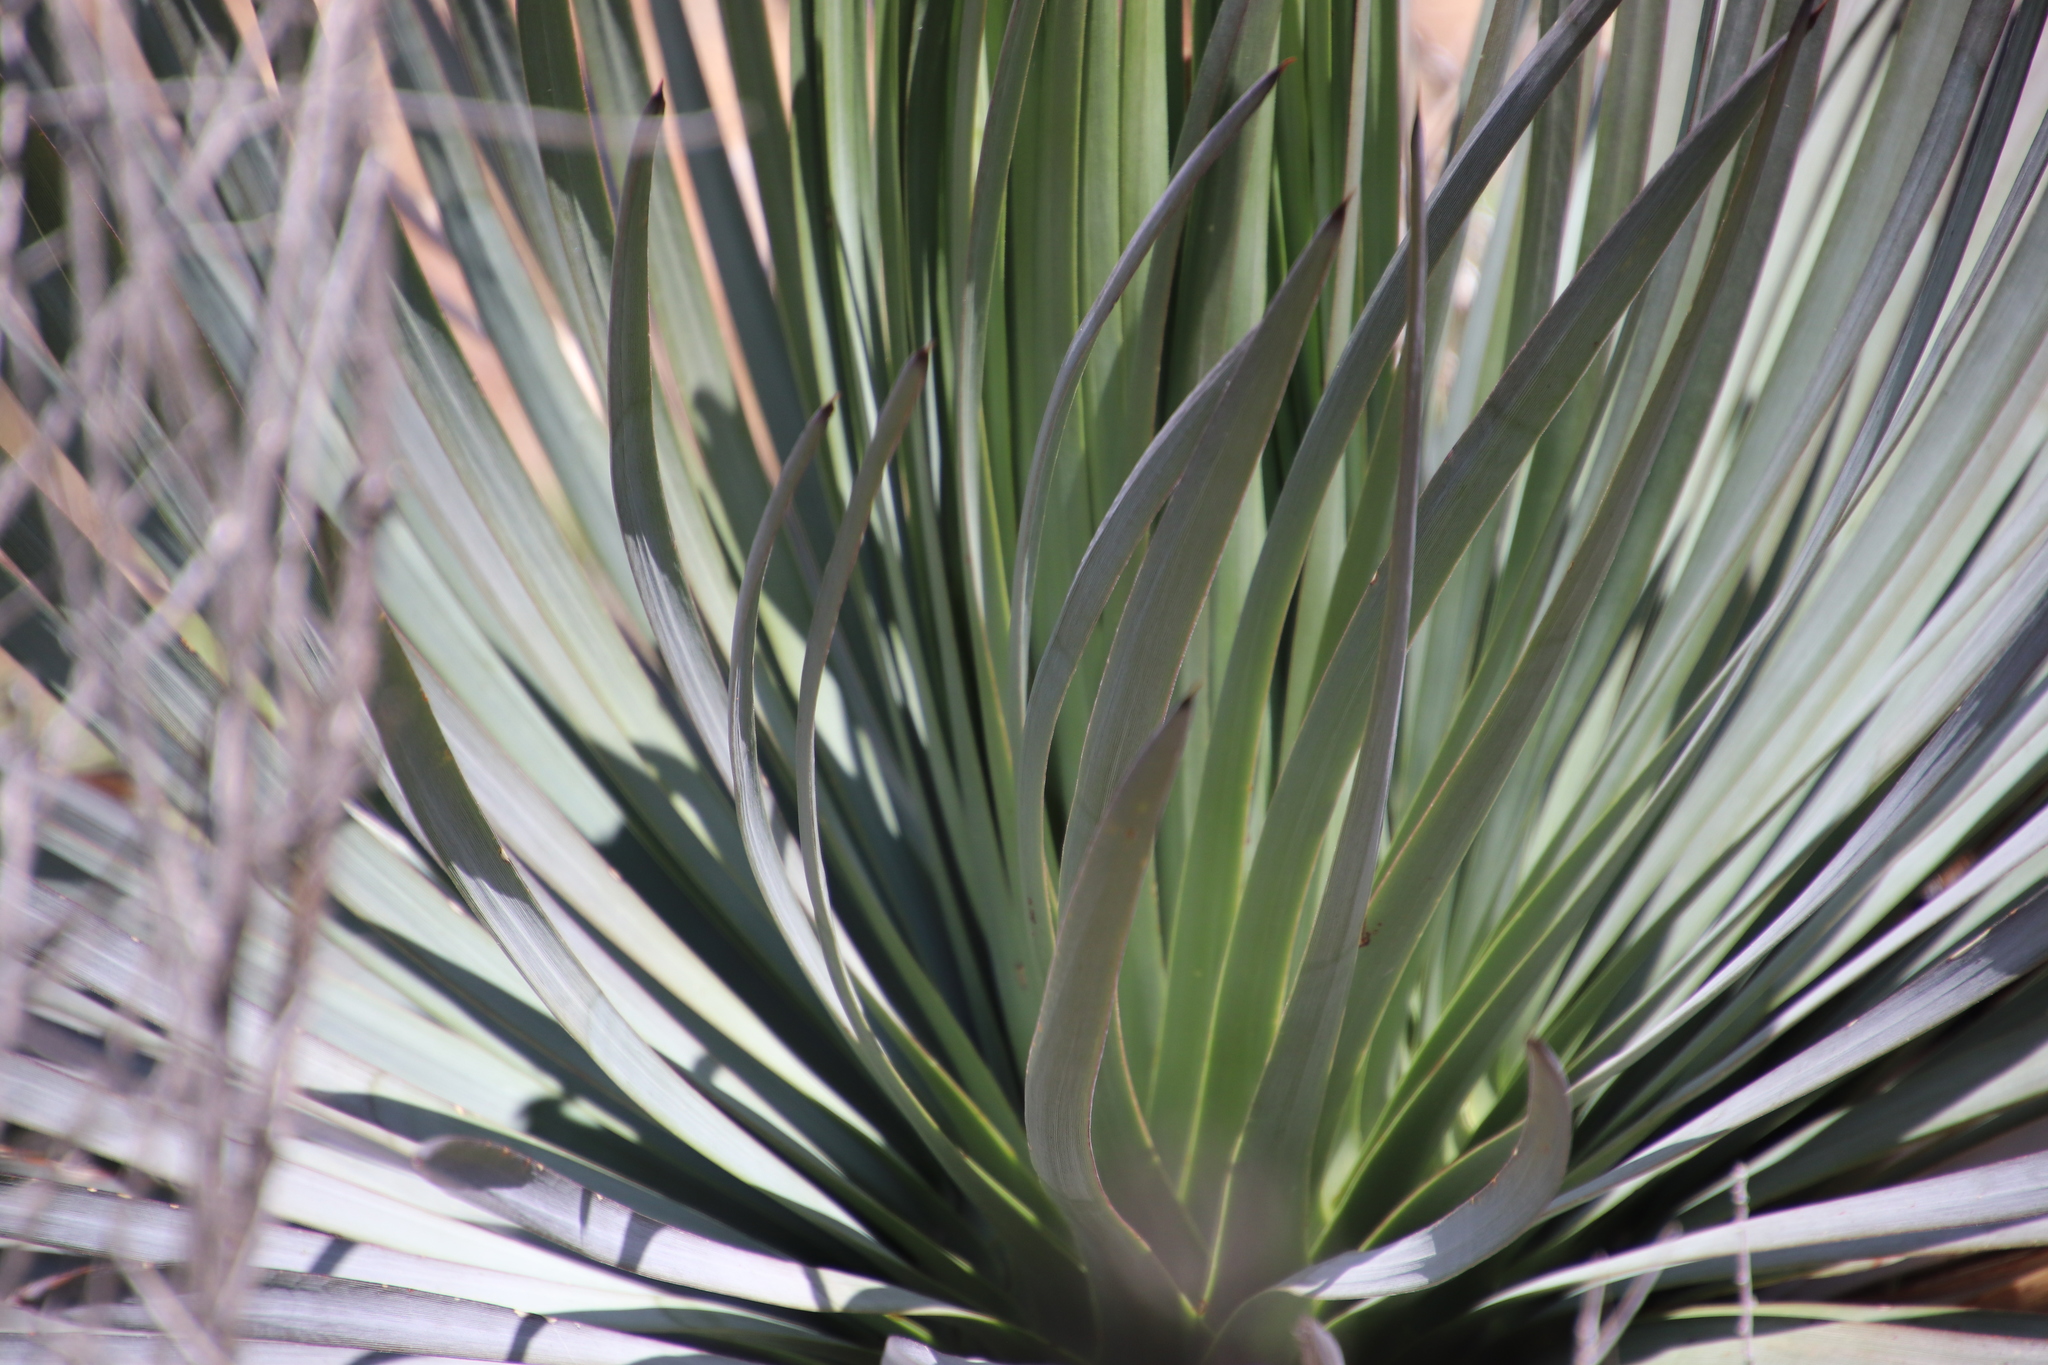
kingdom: Plantae
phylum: Tracheophyta
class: Liliopsida
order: Asparagales
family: Asparagaceae
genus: Hesperoyucca
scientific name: Hesperoyucca whipplei
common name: Our lord's-candle
